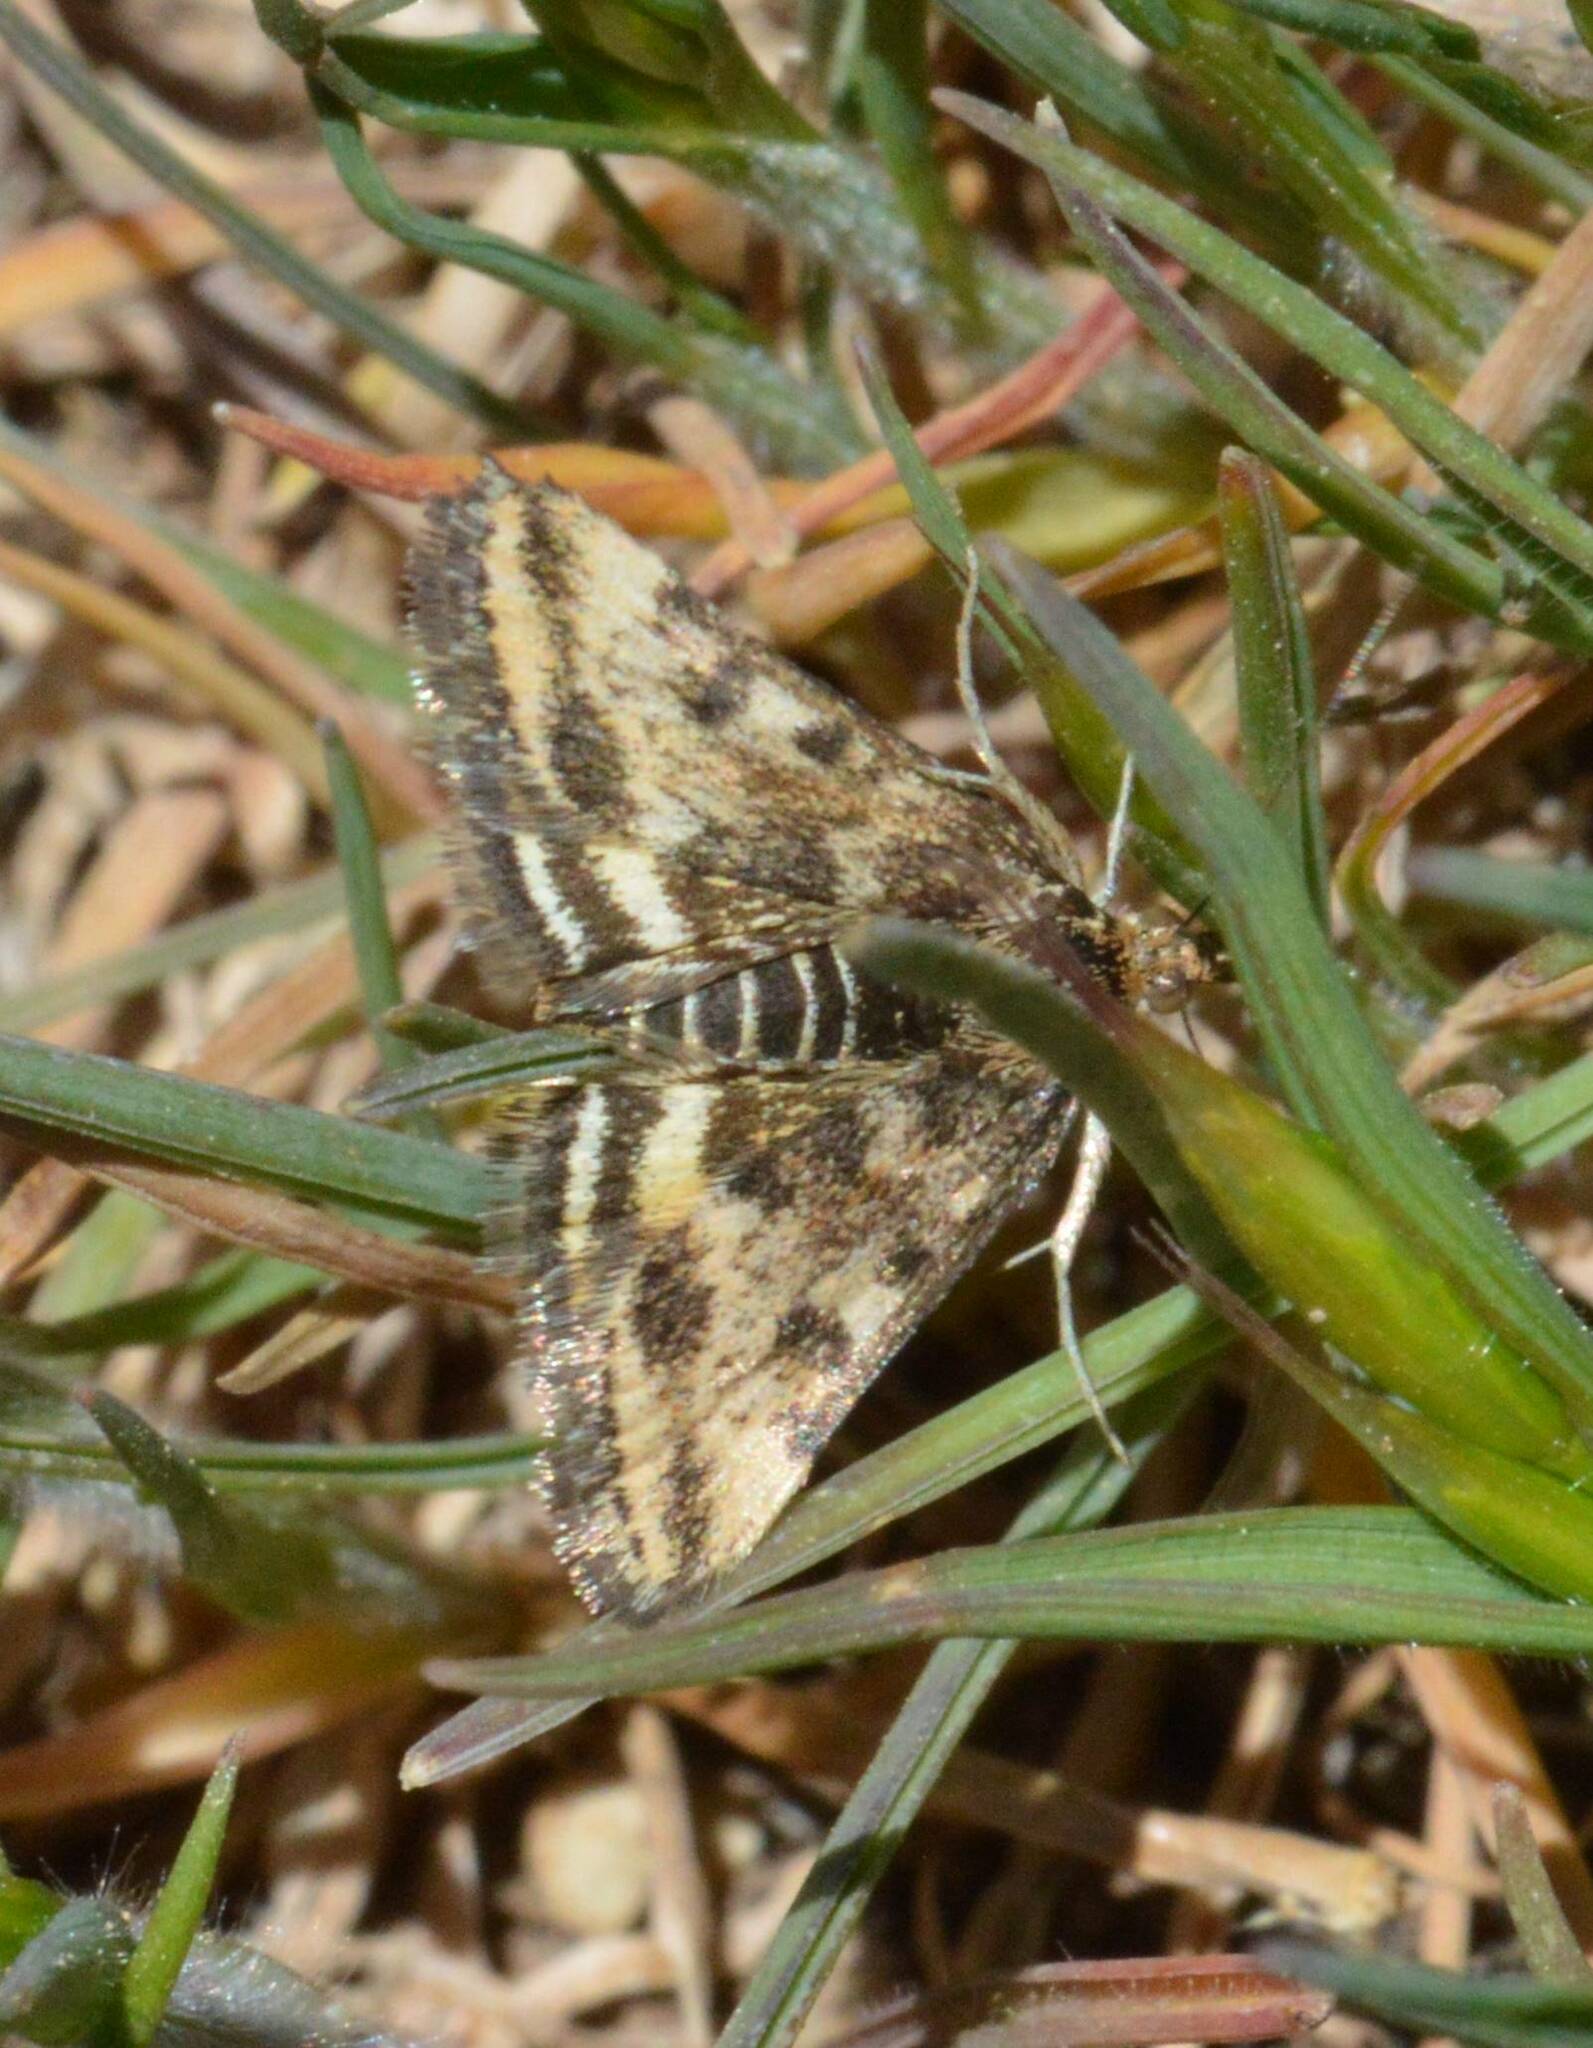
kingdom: Animalia
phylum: Arthropoda
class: Insecta
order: Lepidoptera
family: Crambidae
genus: Pyrausta
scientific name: Pyrausta despicata
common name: Straw-barred pearl
